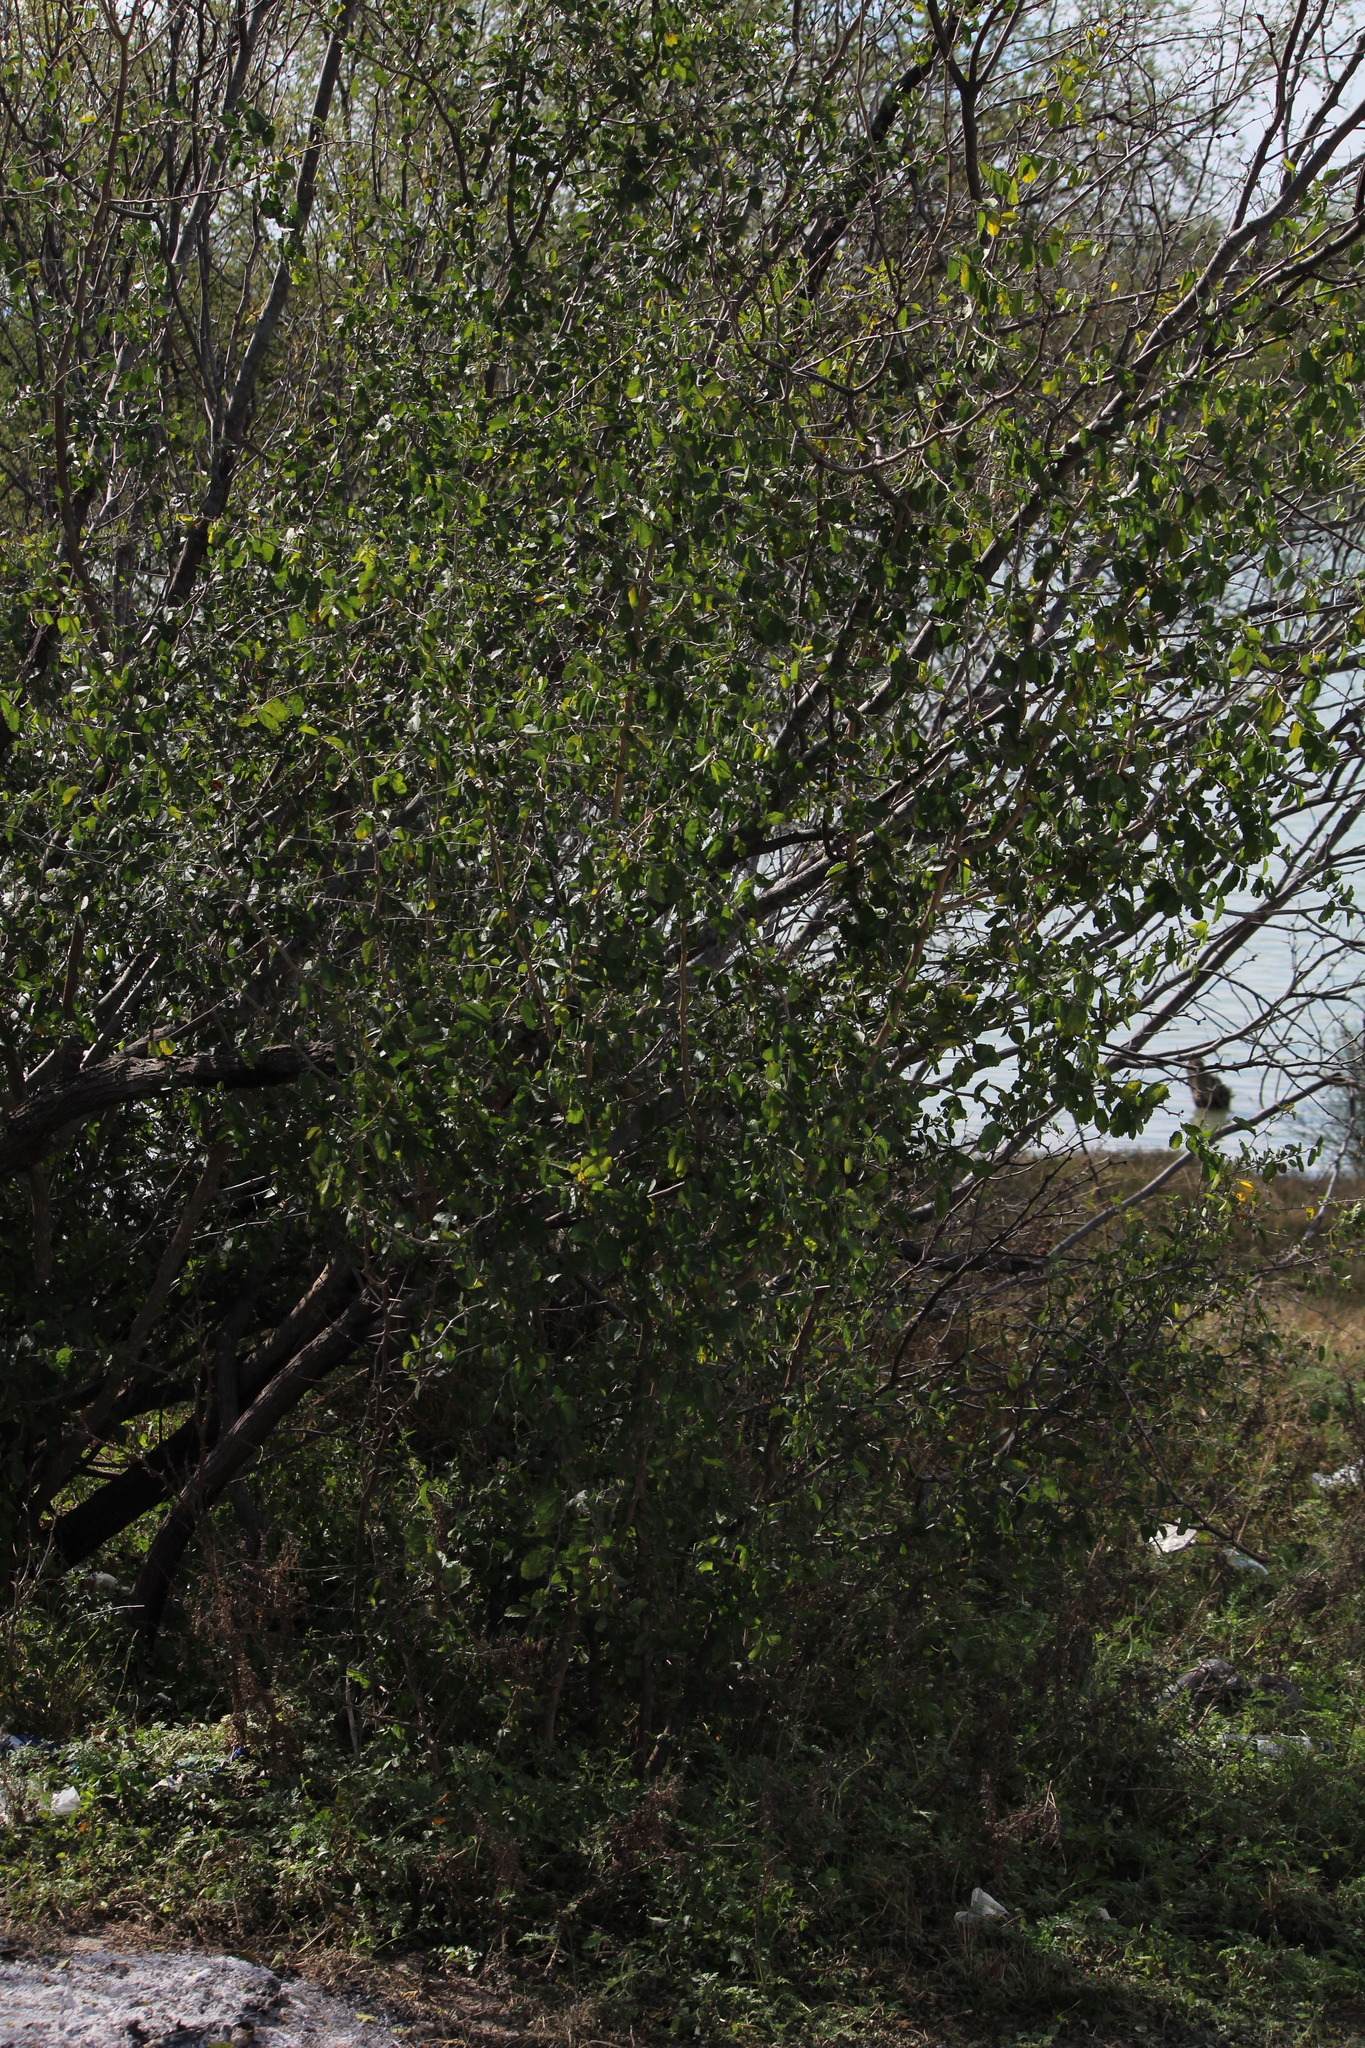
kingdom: Plantae
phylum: Tracheophyta
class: Magnoliopsida
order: Rosales
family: Cannabaceae
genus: Celtis
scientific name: Celtis pallida
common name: Desert hackberry
